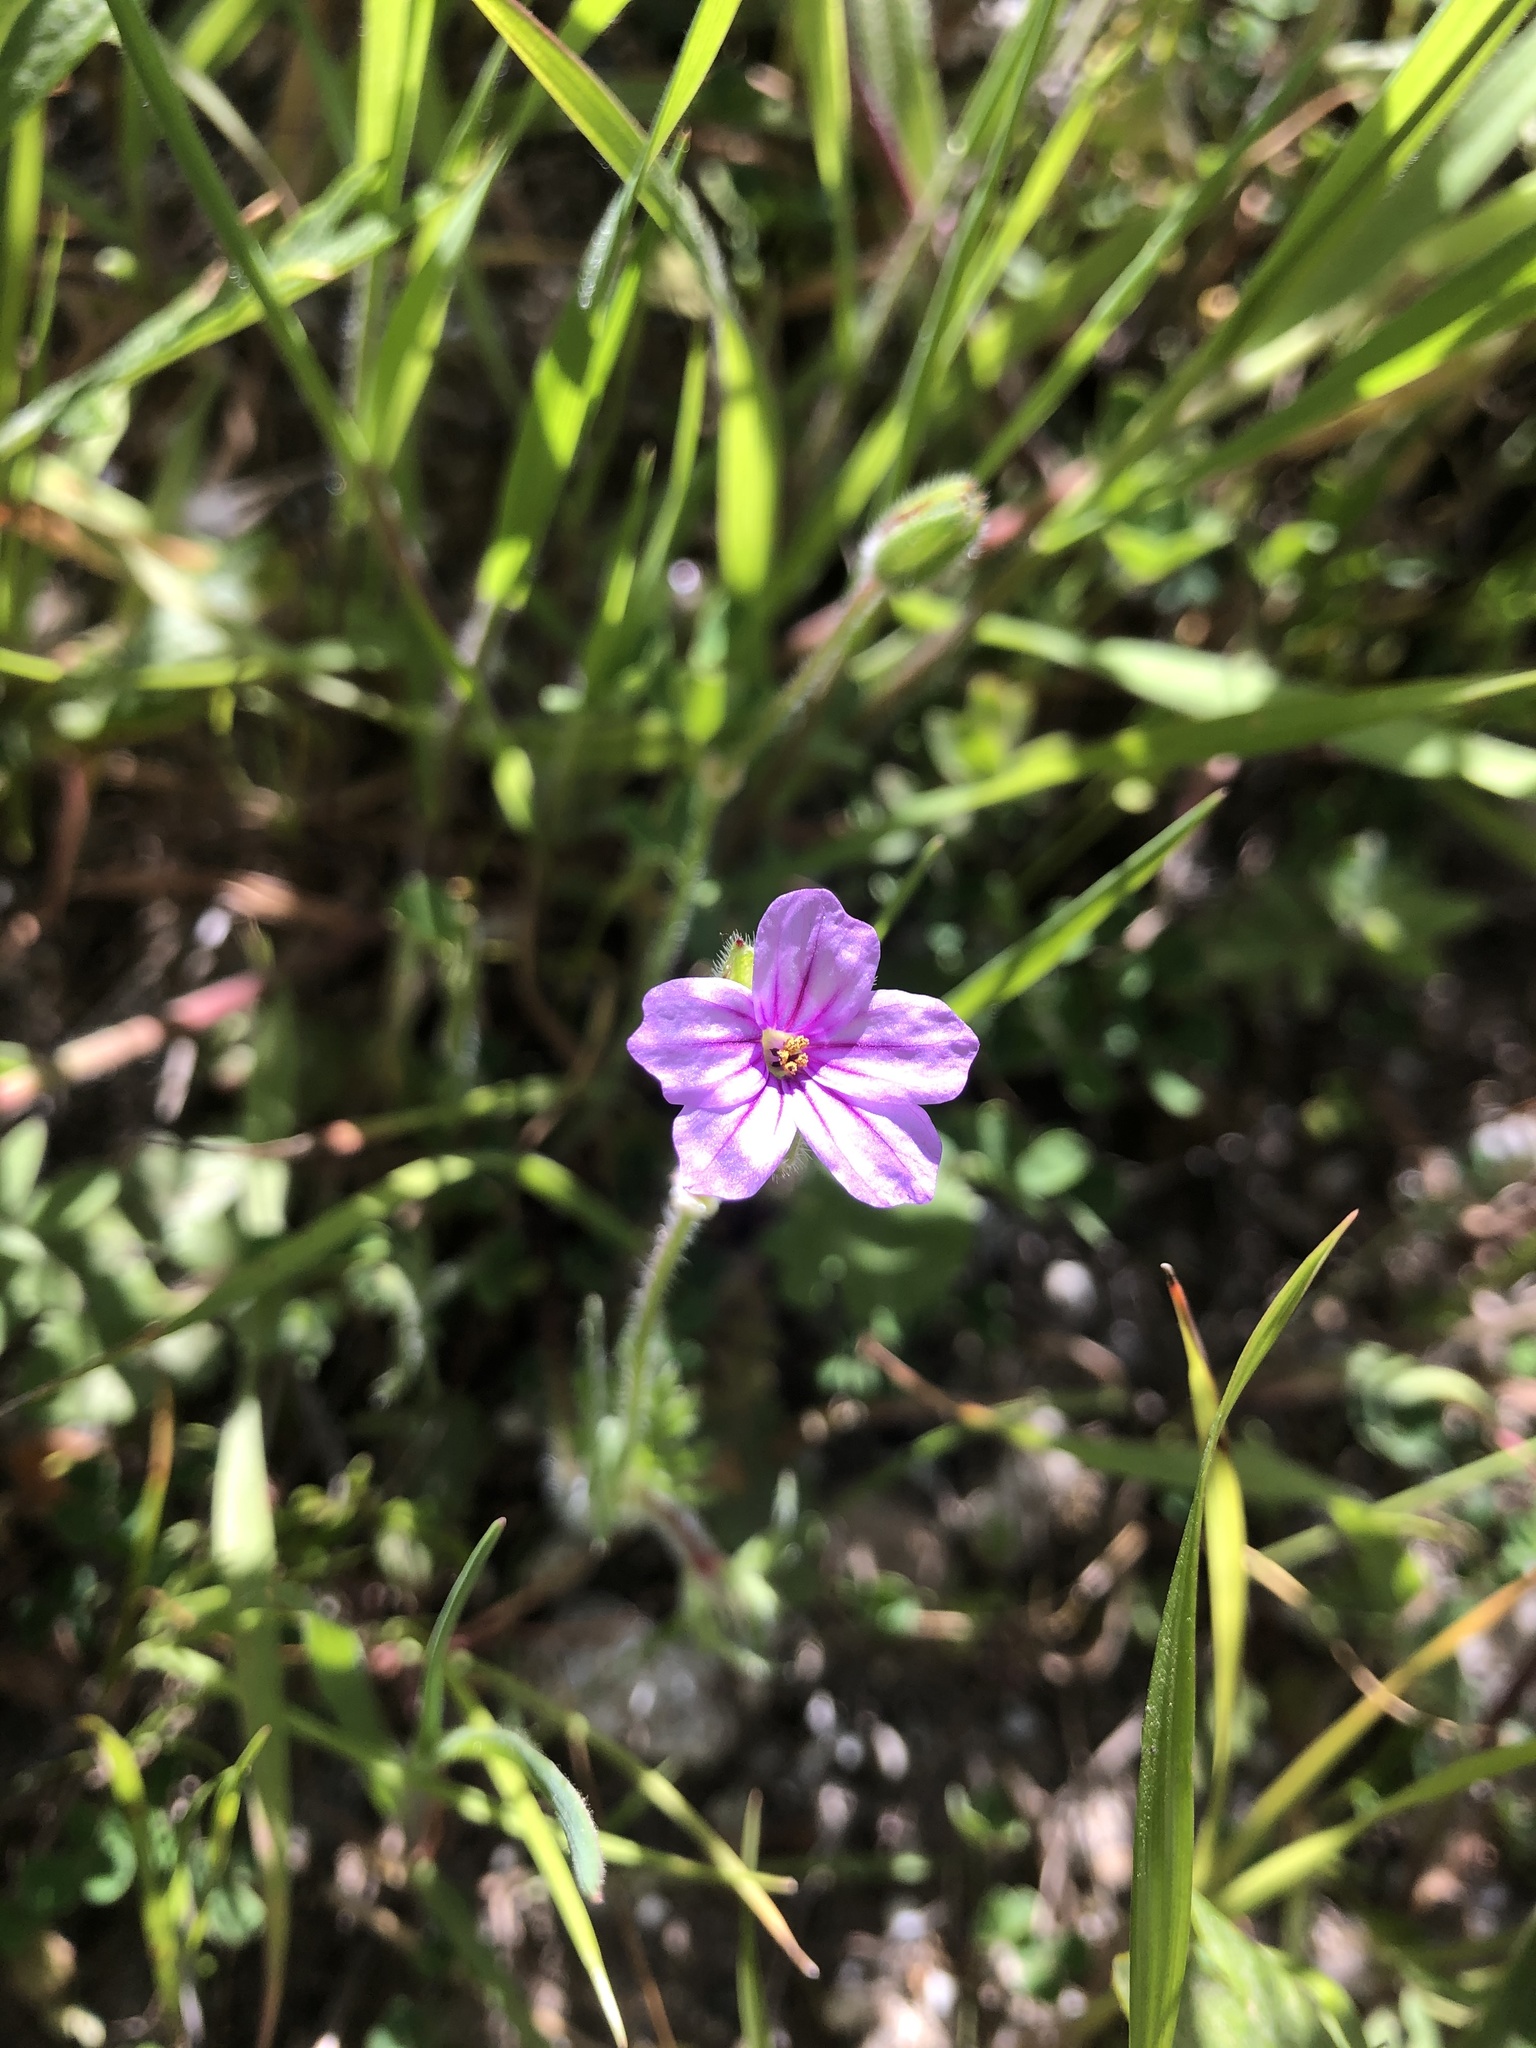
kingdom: Plantae
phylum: Tracheophyta
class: Magnoliopsida
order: Geraniales
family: Geraniaceae
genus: Erodium
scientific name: Erodium botrys
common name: Mediterranean stork's-bill
